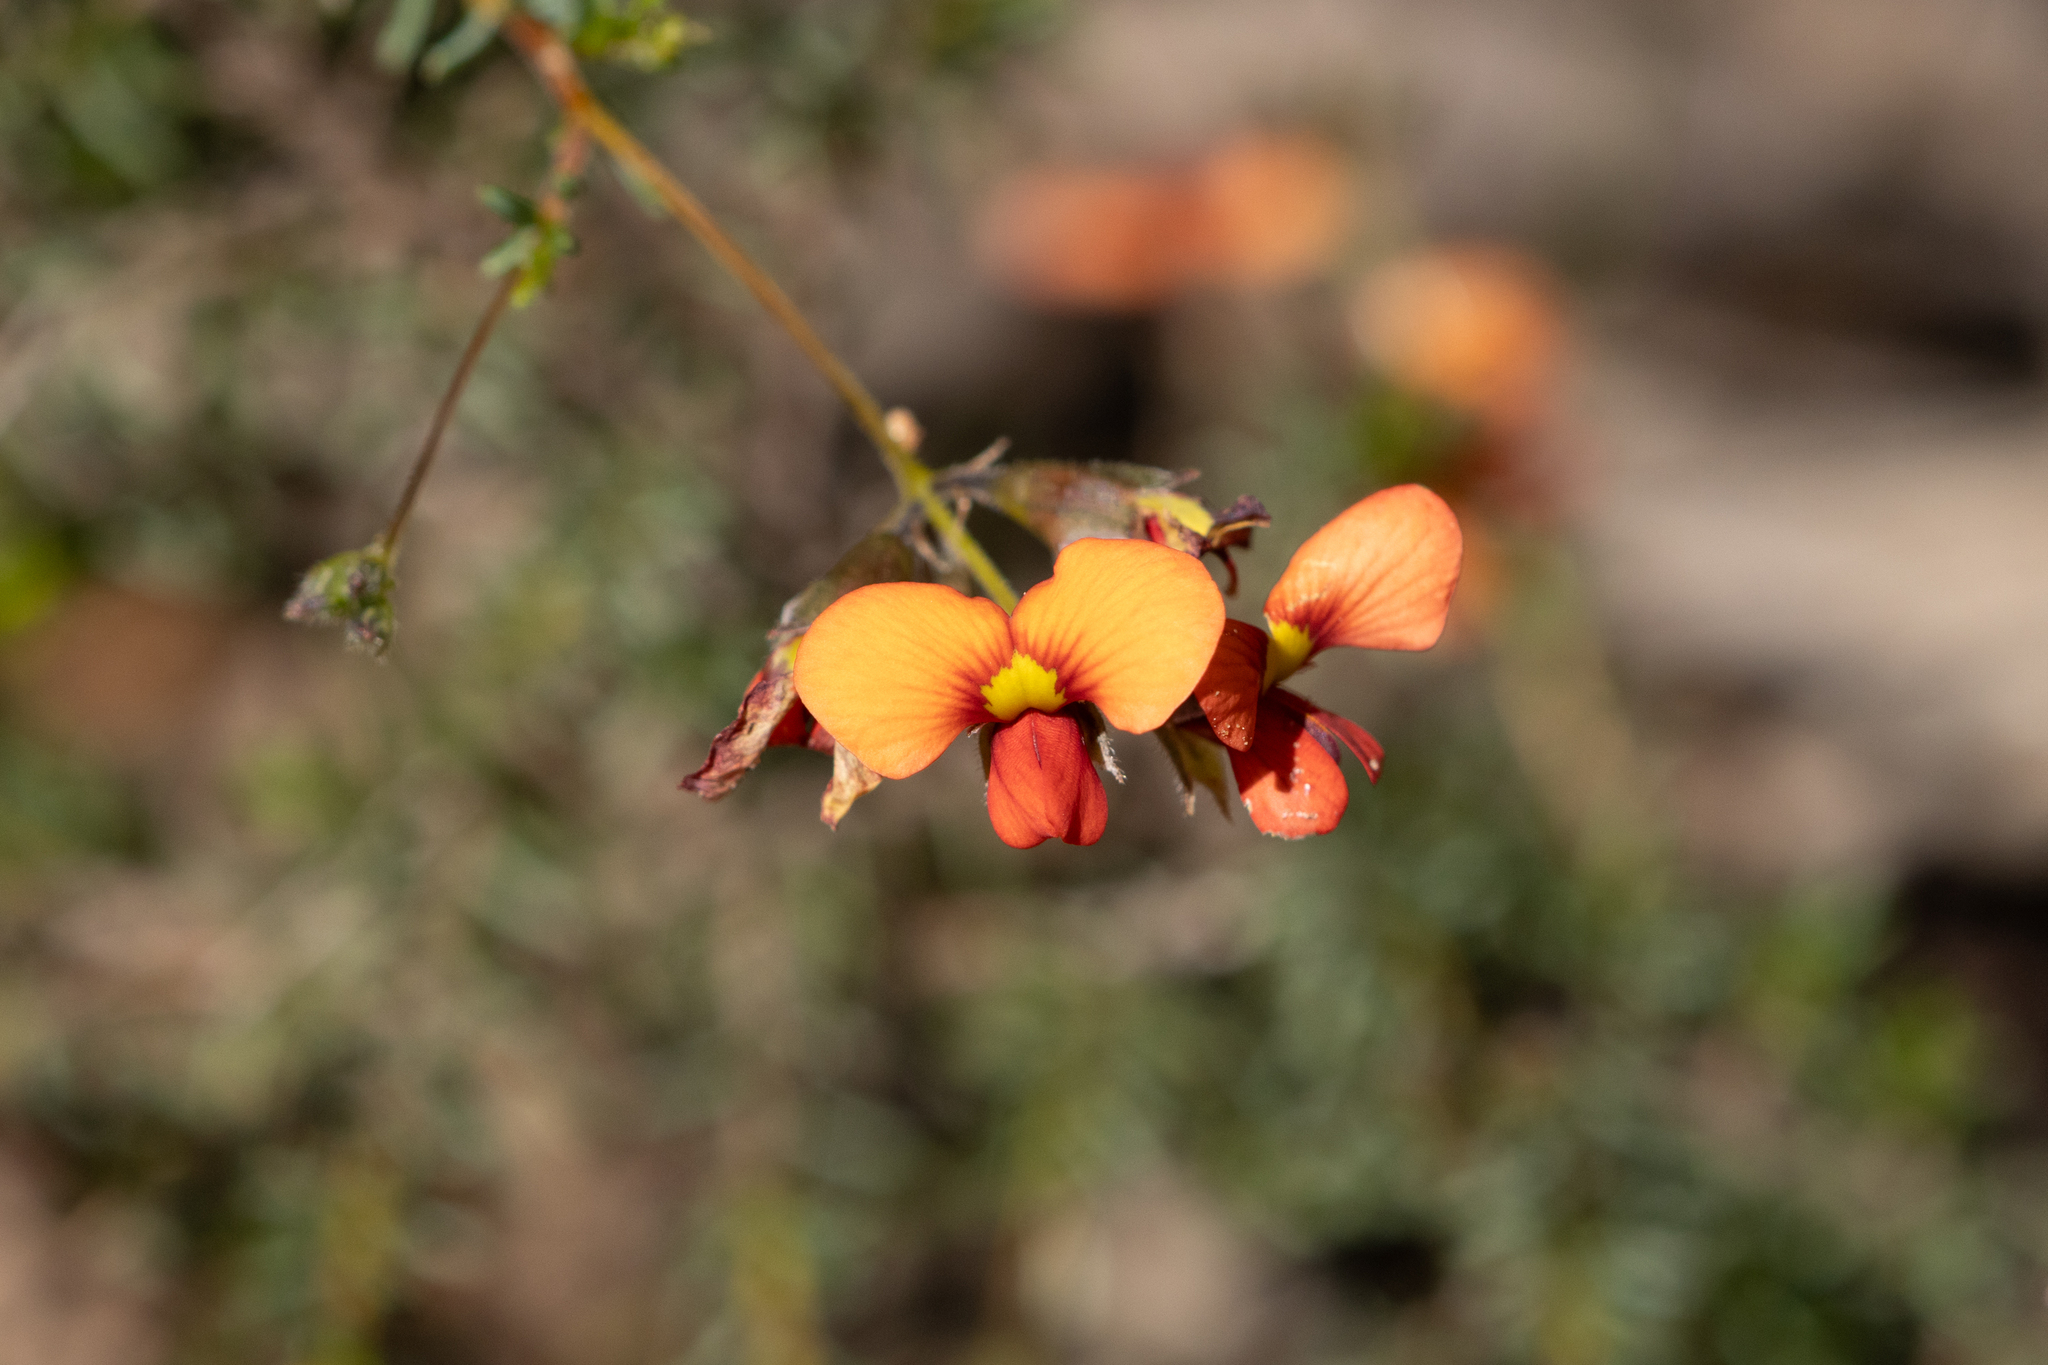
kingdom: Plantae
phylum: Tracheophyta
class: Magnoliopsida
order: Fabales
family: Fabaceae
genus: Dillwynia
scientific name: Dillwynia hispida
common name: Red parrot-pea
